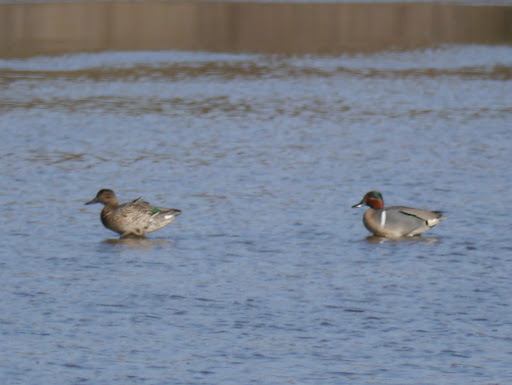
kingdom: Animalia
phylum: Chordata
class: Aves
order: Anseriformes
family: Anatidae
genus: Anas
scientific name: Anas crecca
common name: Eurasian teal
